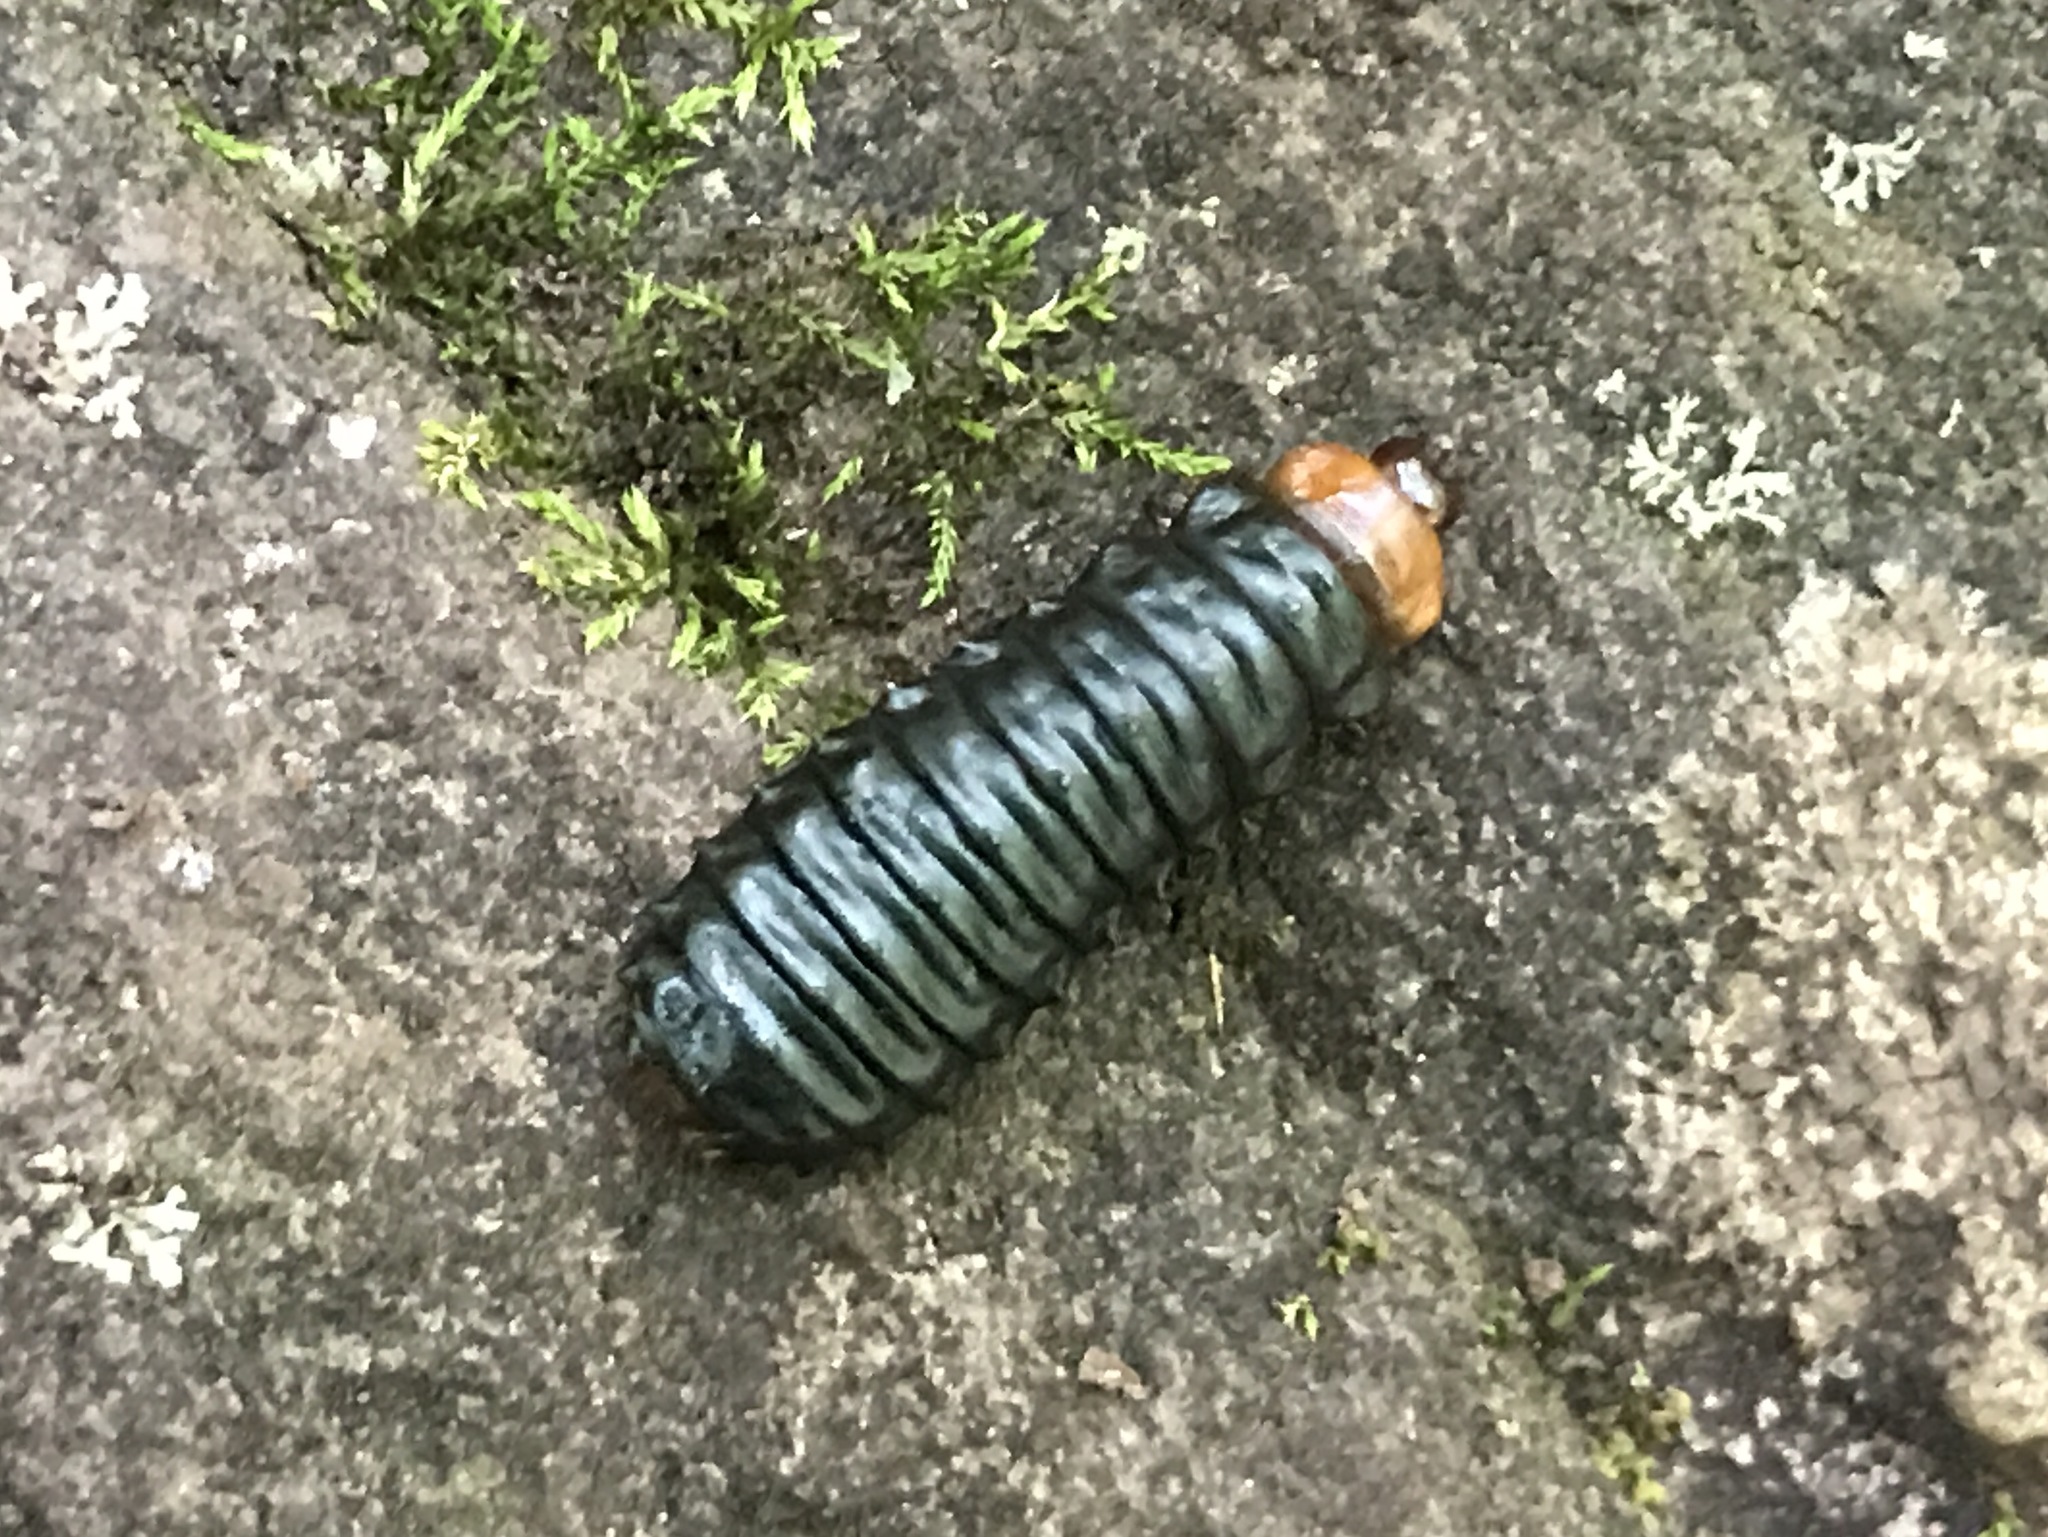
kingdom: Animalia
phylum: Arthropoda
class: Insecta
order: Coleoptera
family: Chrysomelidae
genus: Monocesta
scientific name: Monocesta coryli
